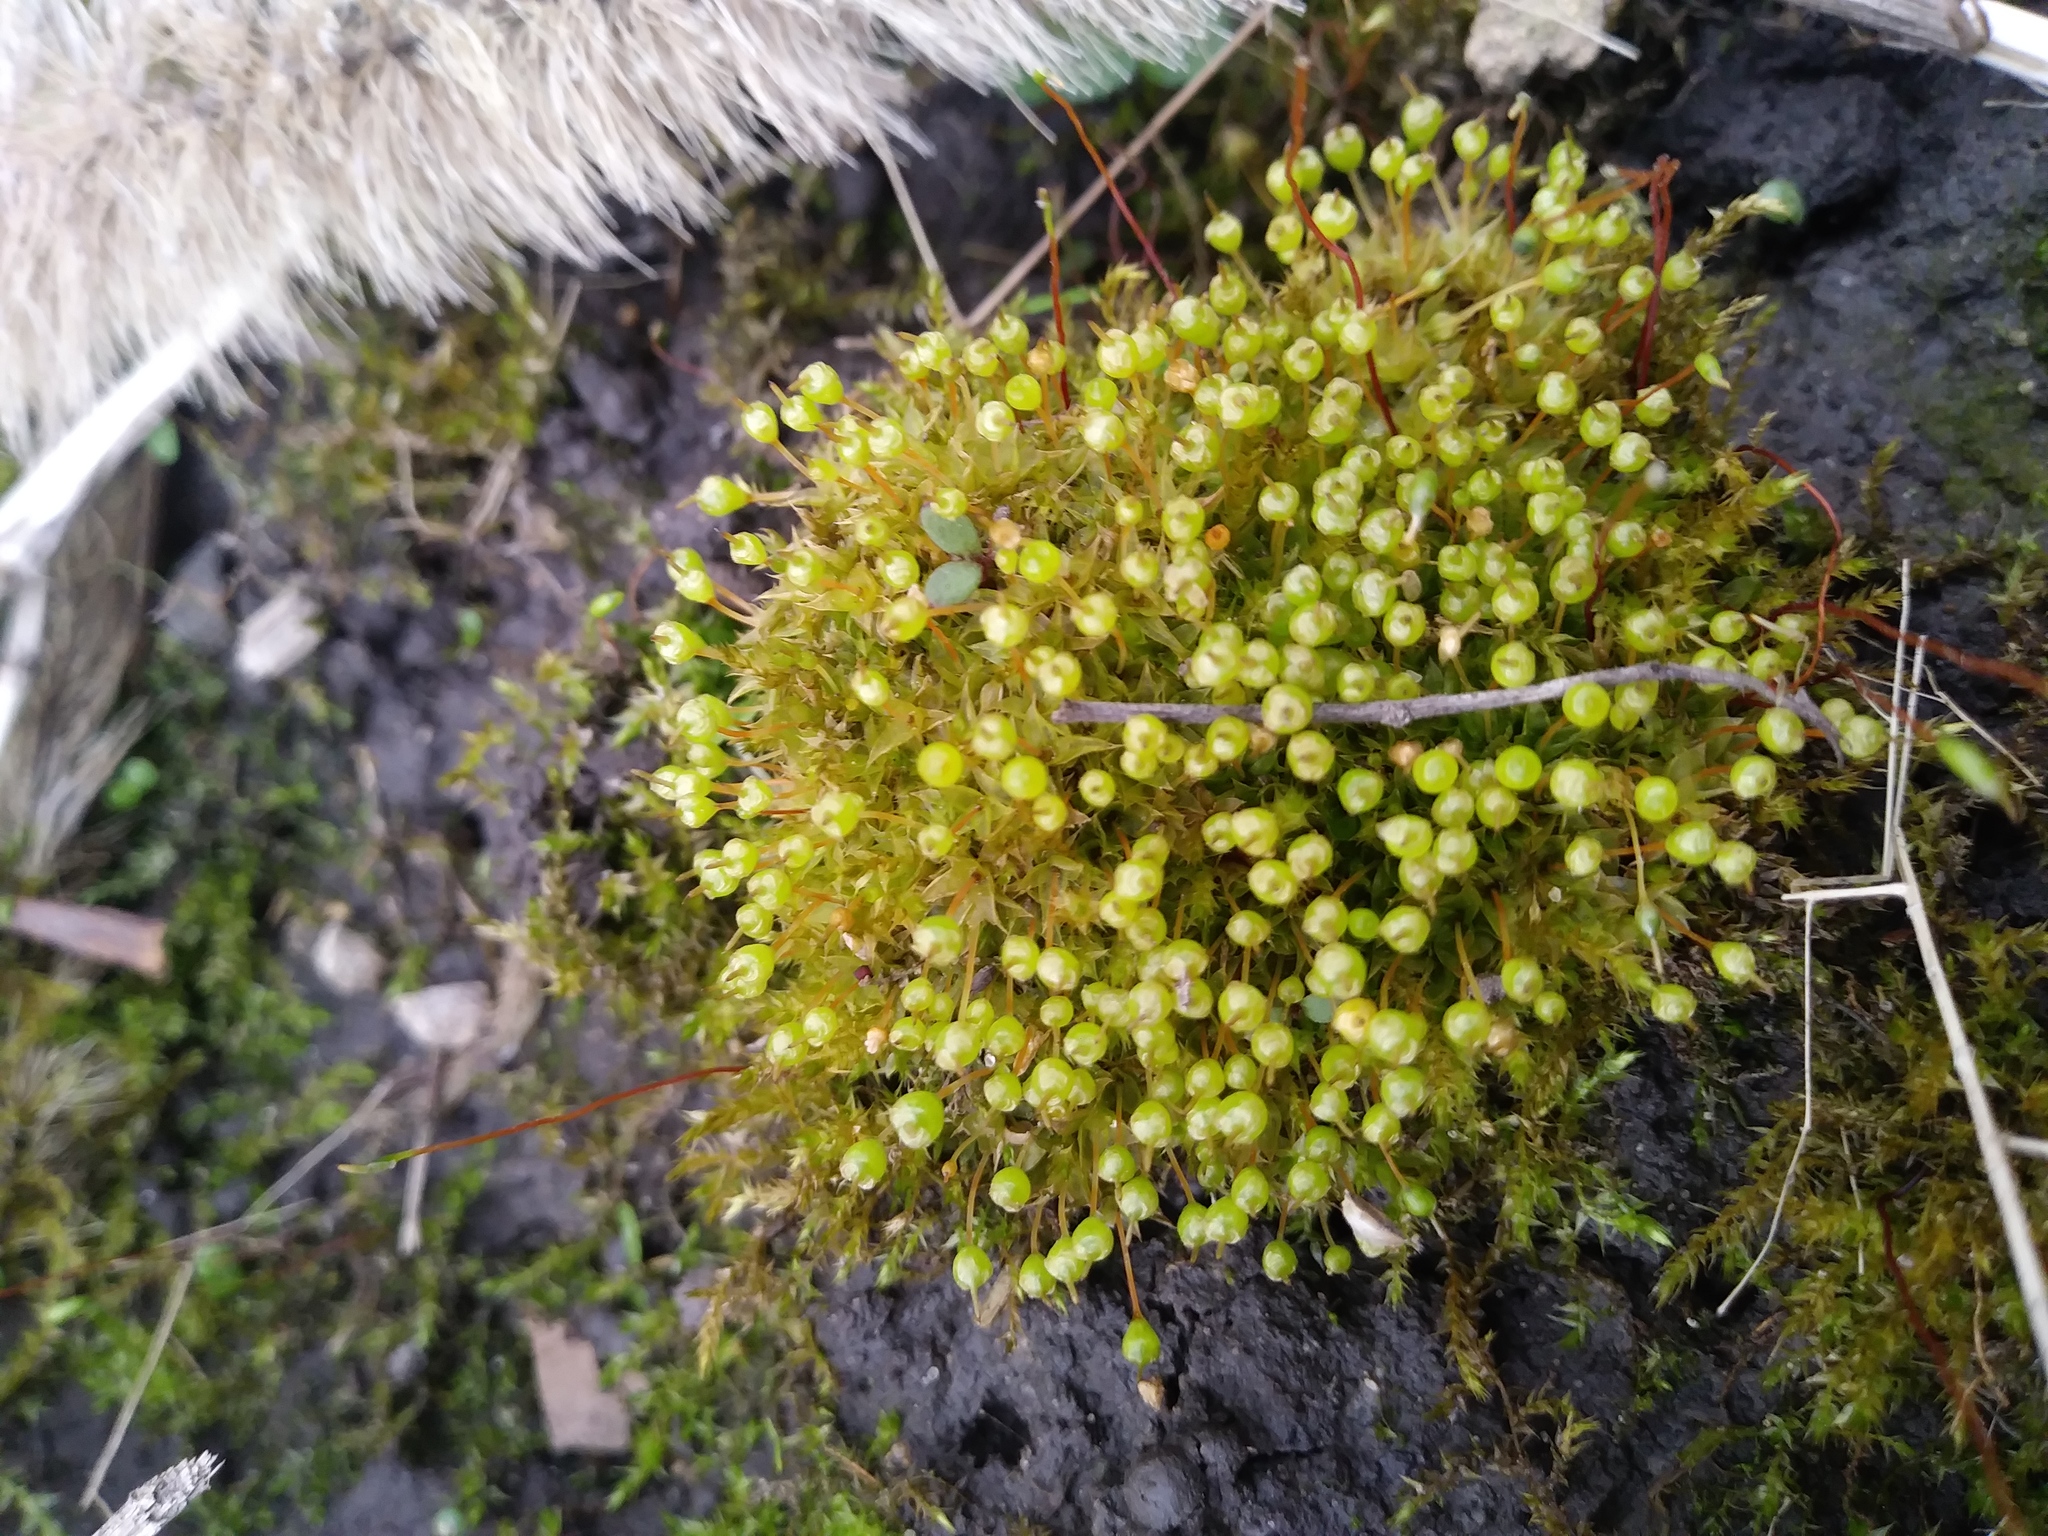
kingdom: Plantae
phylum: Bryophyta
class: Bryopsida
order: Funariales
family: Funariaceae
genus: Physcomitrium
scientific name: Physcomitrium pyriforme
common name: Common bladder-moss
